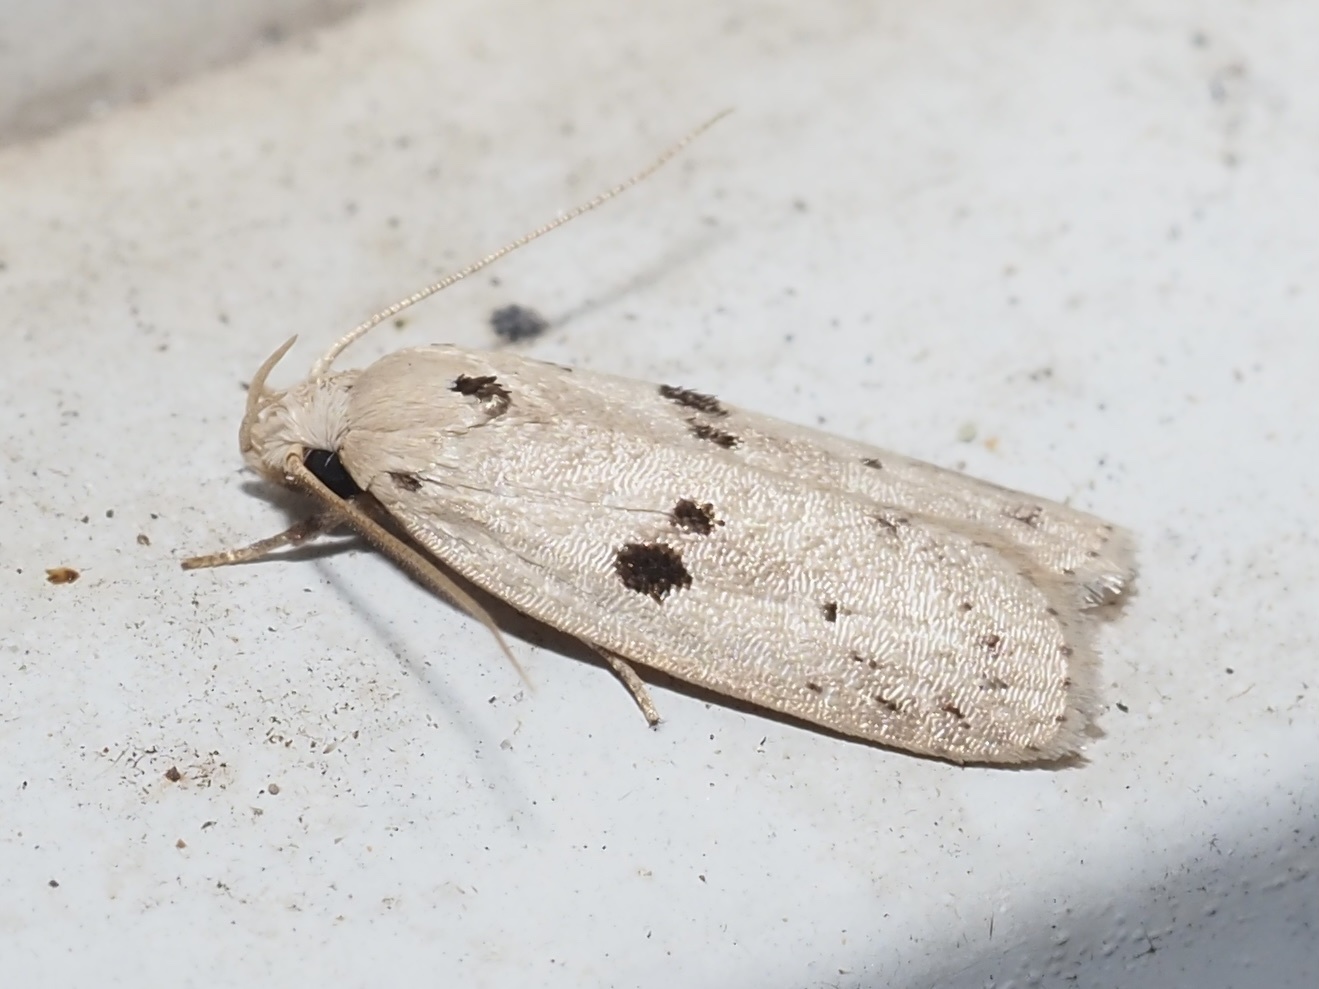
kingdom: Animalia
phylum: Arthropoda
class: Insecta
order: Lepidoptera
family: Peleopodidae
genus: Scythropiodes
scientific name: Scythropiodes issikii
